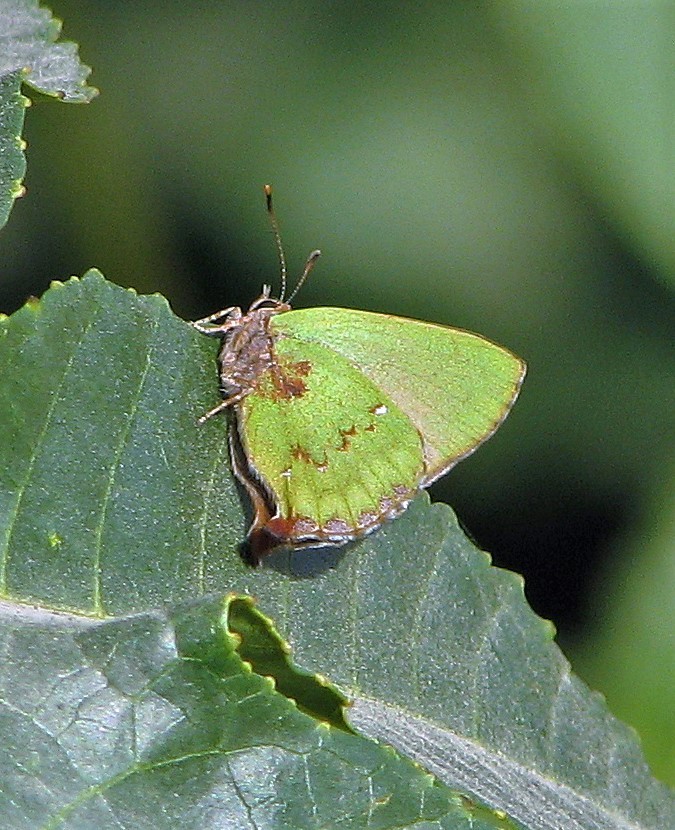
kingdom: Animalia
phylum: Arthropoda
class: Insecta
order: Lepidoptera
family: Lycaenidae
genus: Cyanophrys
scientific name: Cyanophrys
